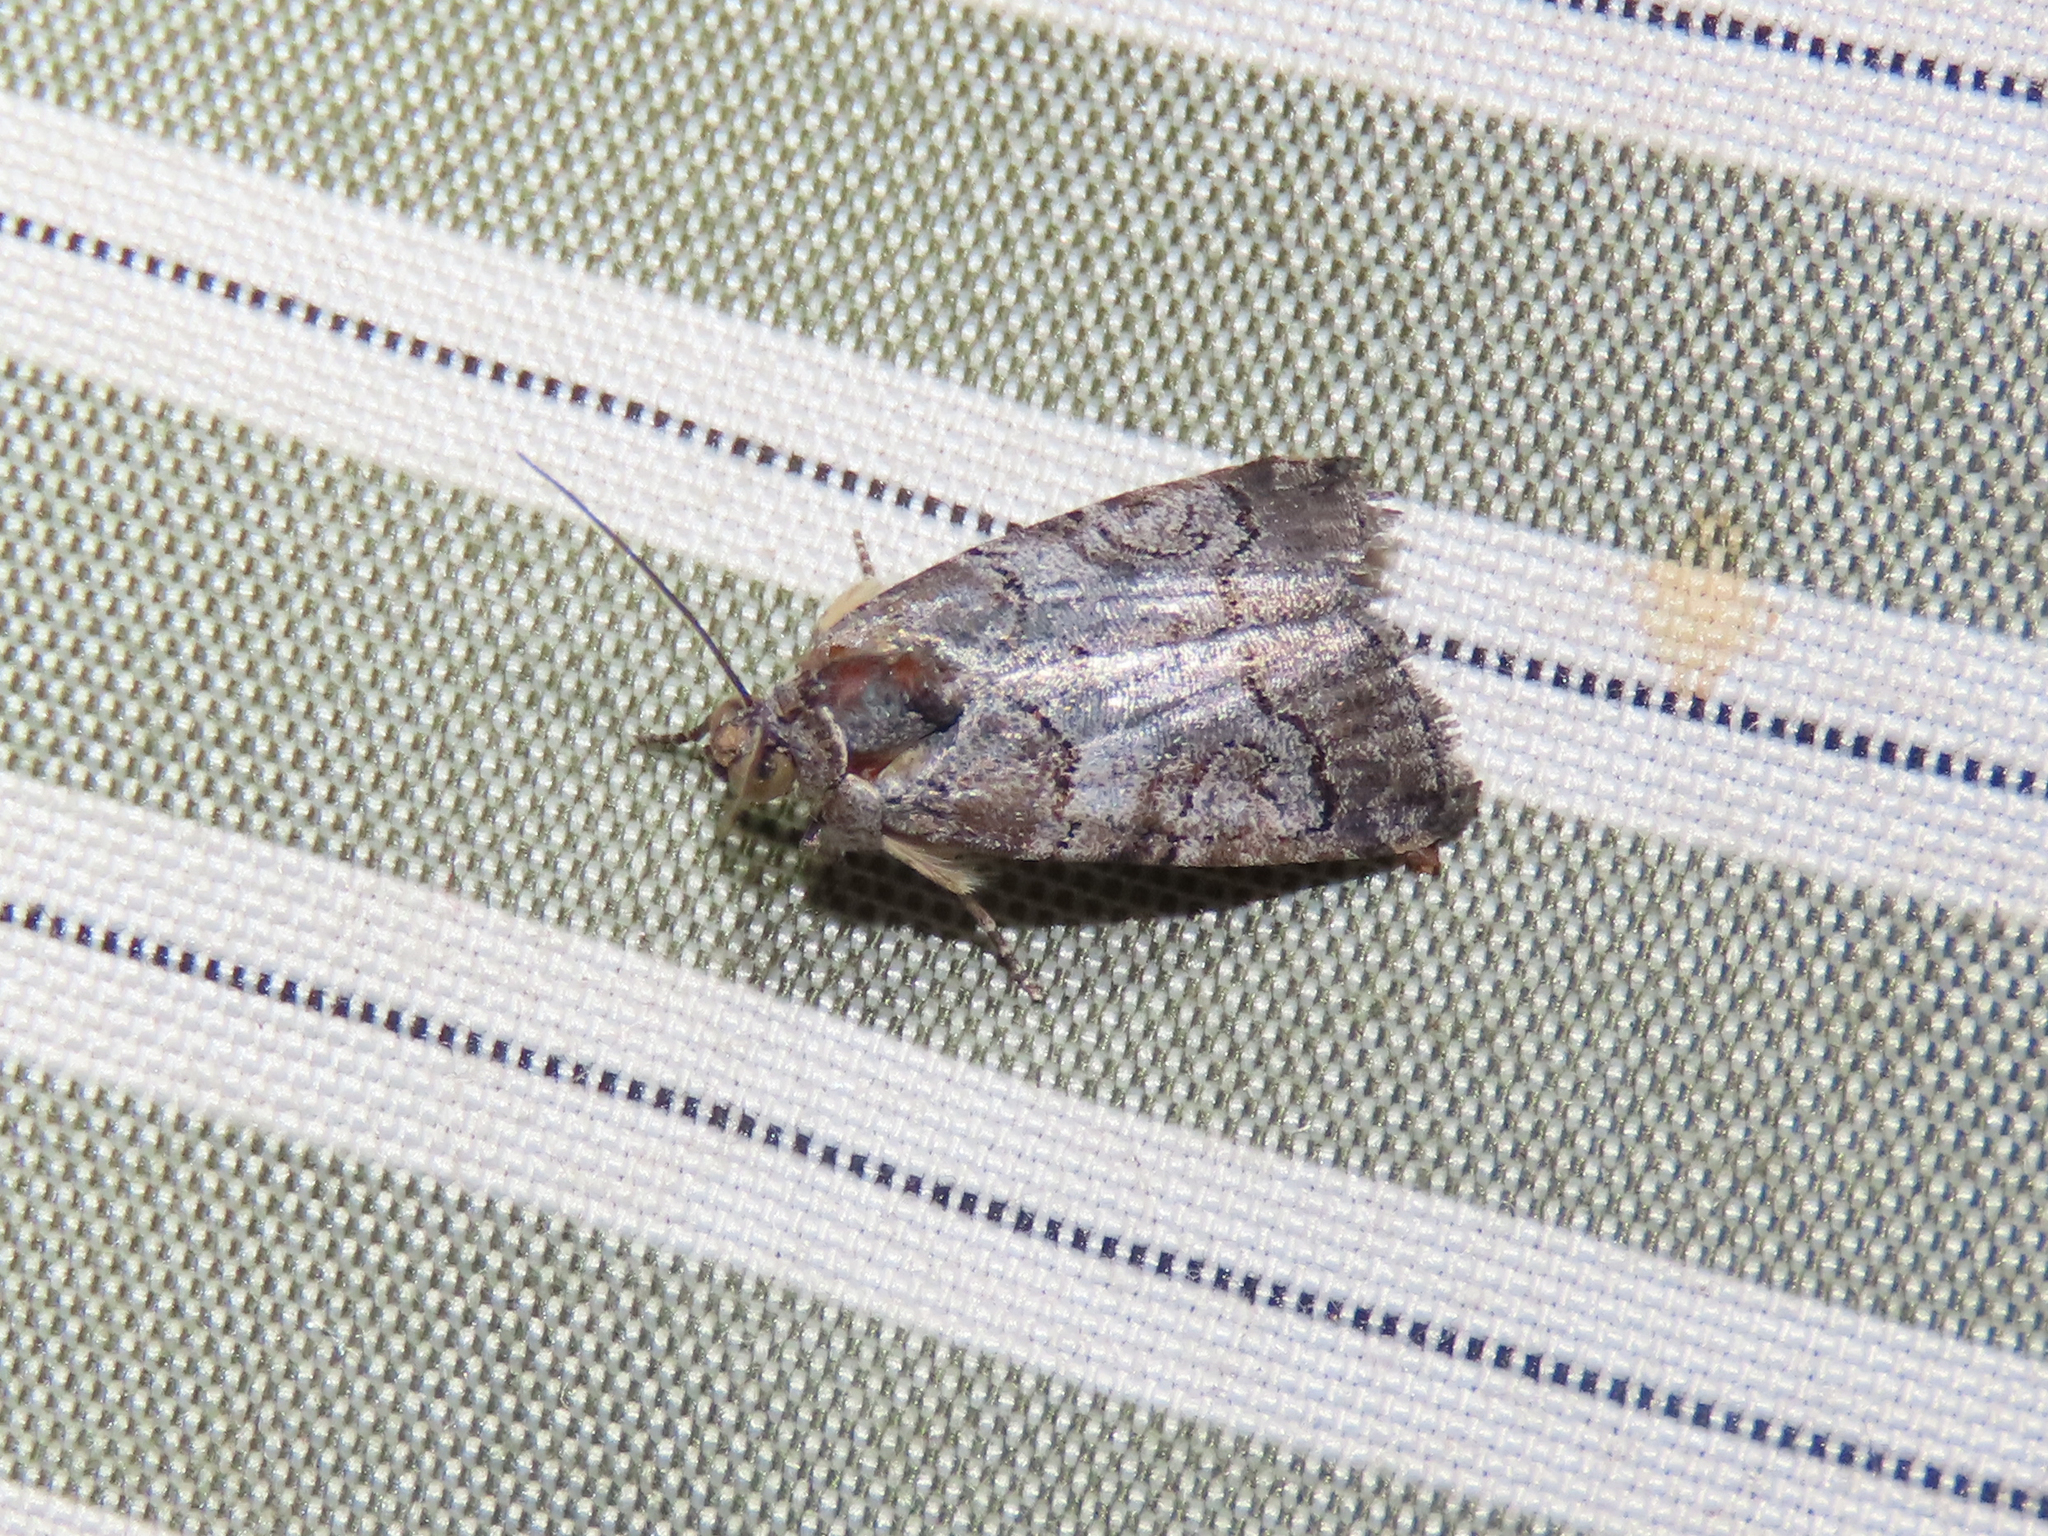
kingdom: Animalia
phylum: Arthropoda
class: Insecta
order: Lepidoptera
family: Noctuidae
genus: Metaponpneumata
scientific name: Metaponpneumata rogenhoferi
